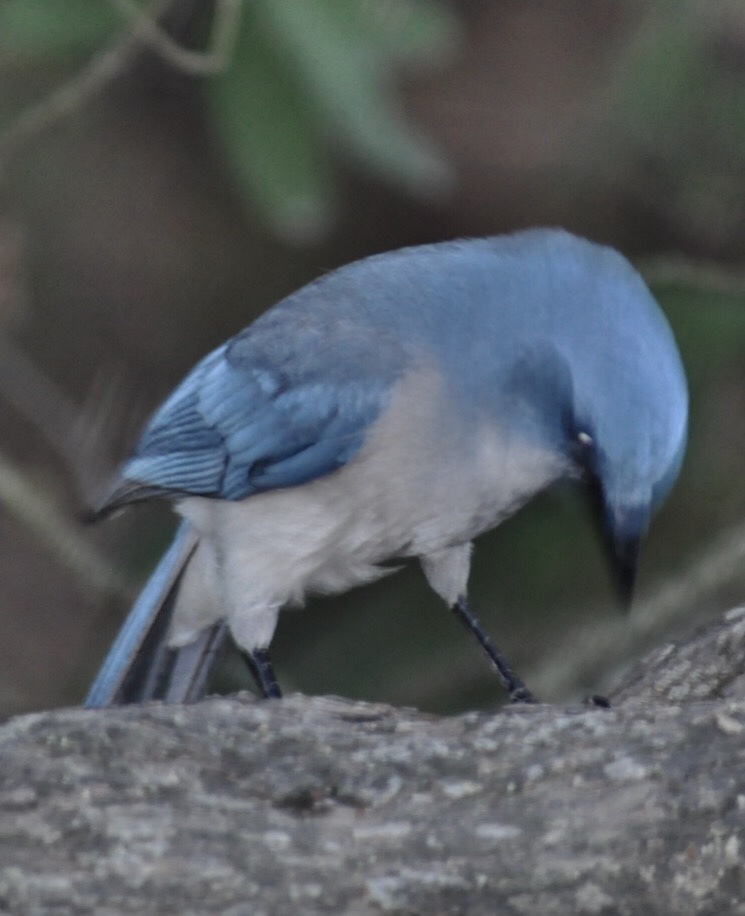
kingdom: Animalia
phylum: Chordata
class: Aves
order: Passeriformes
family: Corvidae
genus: Aphelocoma
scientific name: Aphelocoma wollweberi
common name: Mexican jay
